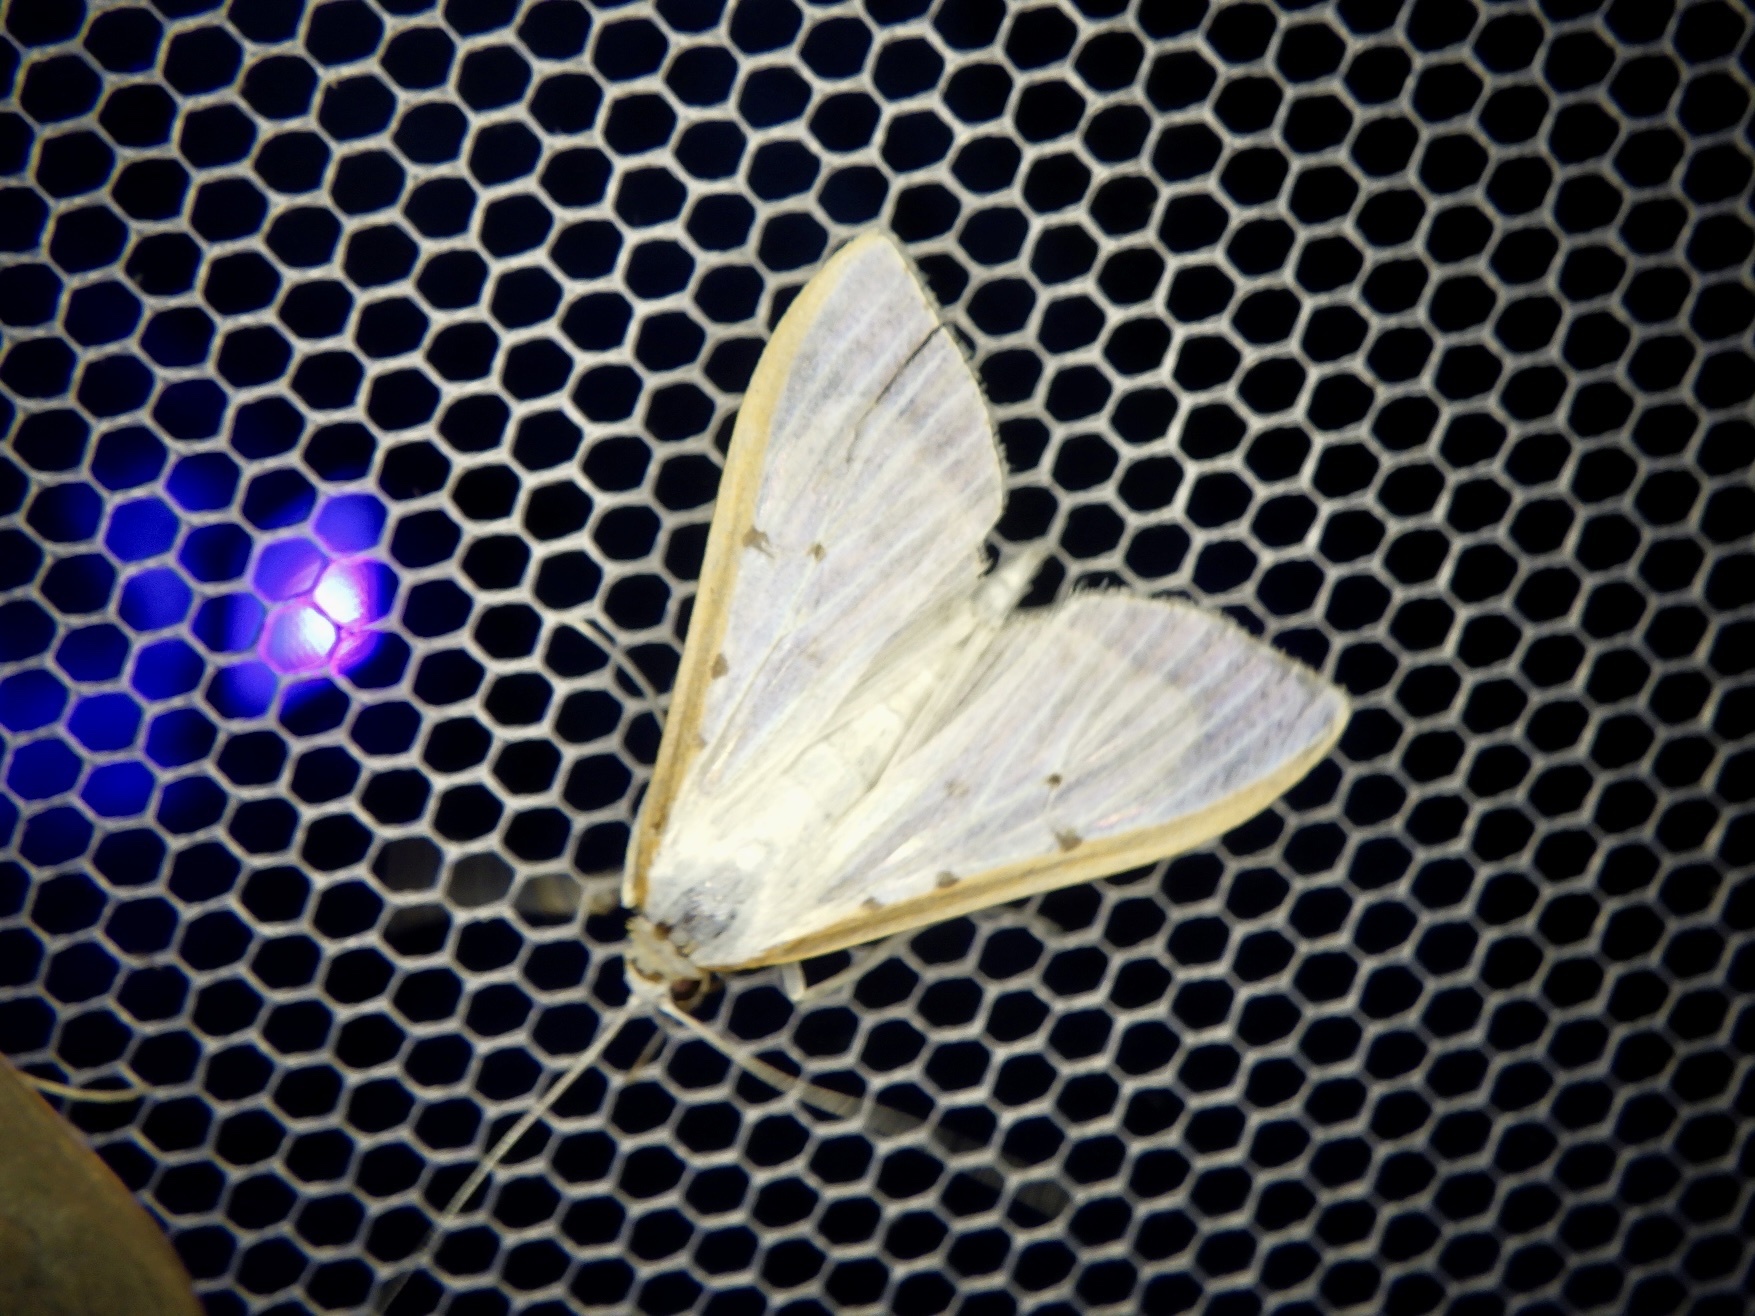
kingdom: Animalia
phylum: Arthropoda
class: Insecta
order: Lepidoptera
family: Crambidae
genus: Palpita
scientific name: Palpita nigropunctalis
